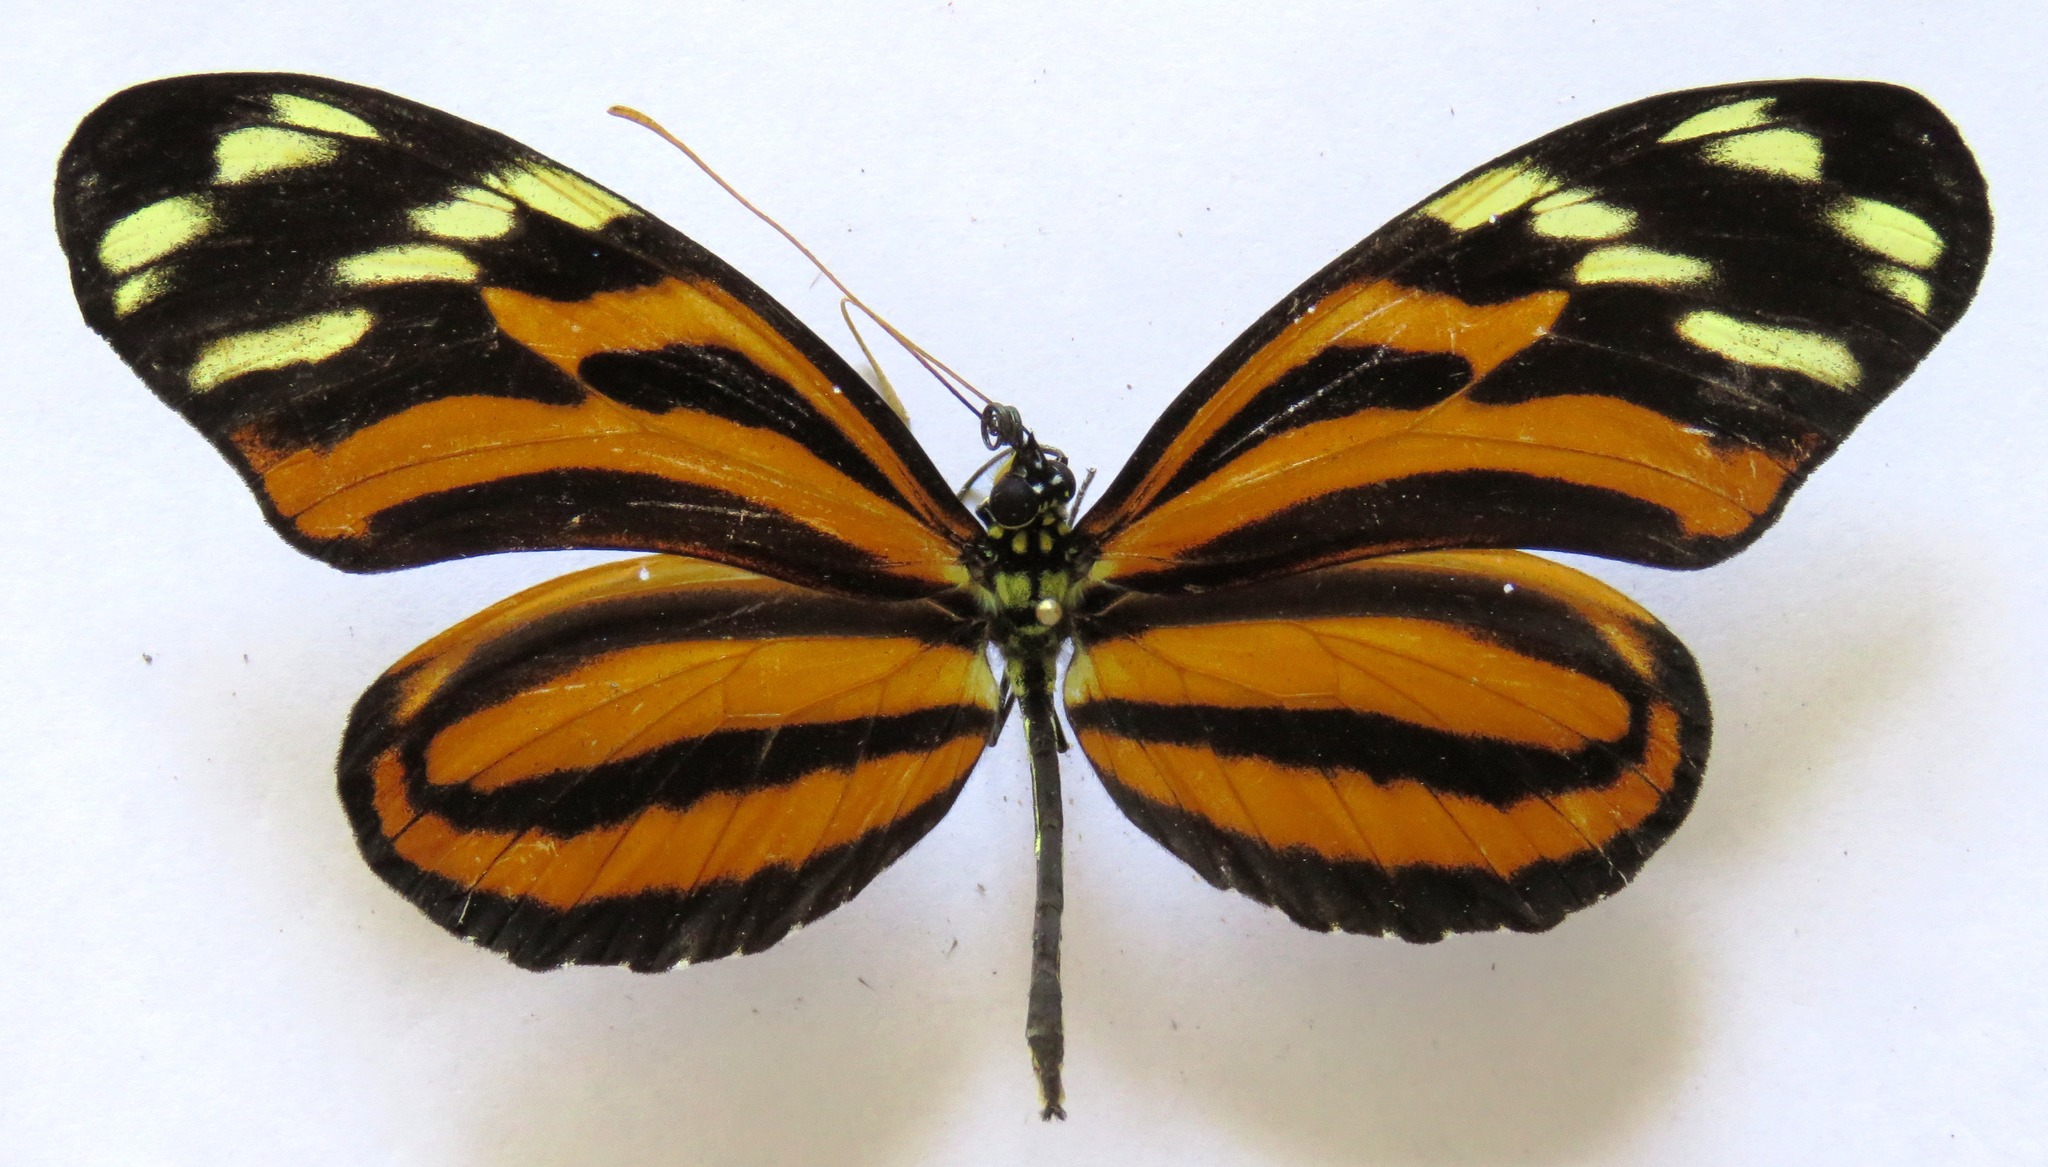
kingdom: Animalia
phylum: Arthropoda
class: Insecta
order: Lepidoptera
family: Nymphalidae
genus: Heliconius
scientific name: Heliconius ismenius
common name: Ismenius tiger
